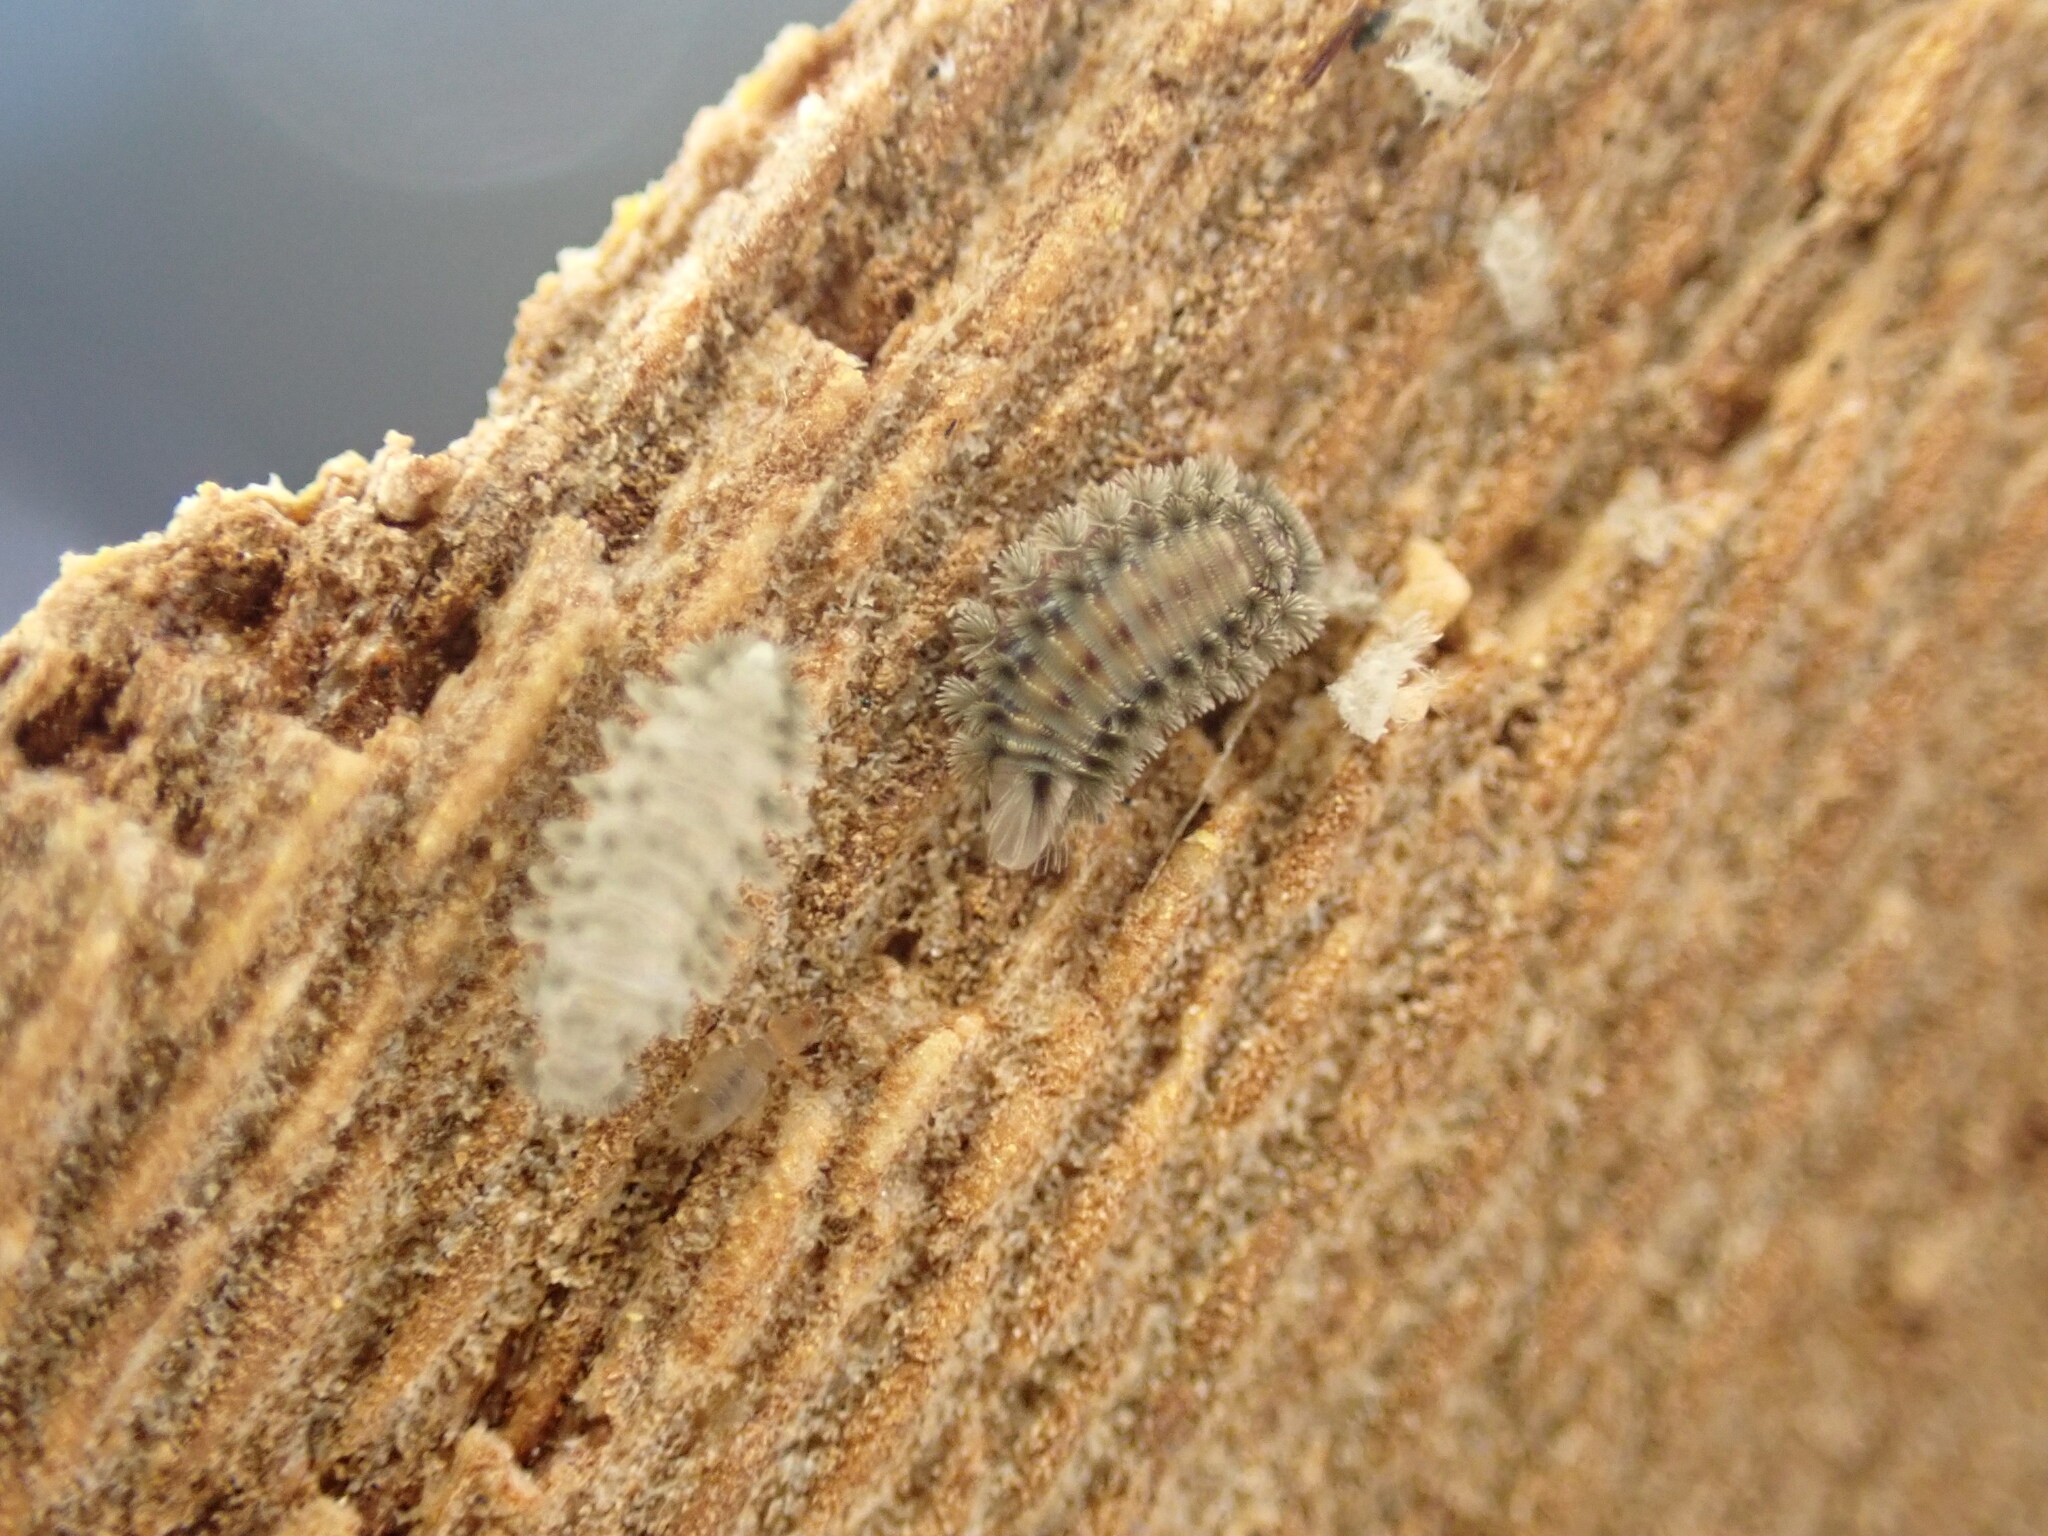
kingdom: Animalia
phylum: Arthropoda
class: Diplopoda
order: Polyxenida
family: Polyxenidae
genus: Polyxenus
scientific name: Polyxenus lagurus
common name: Bristly millipede
